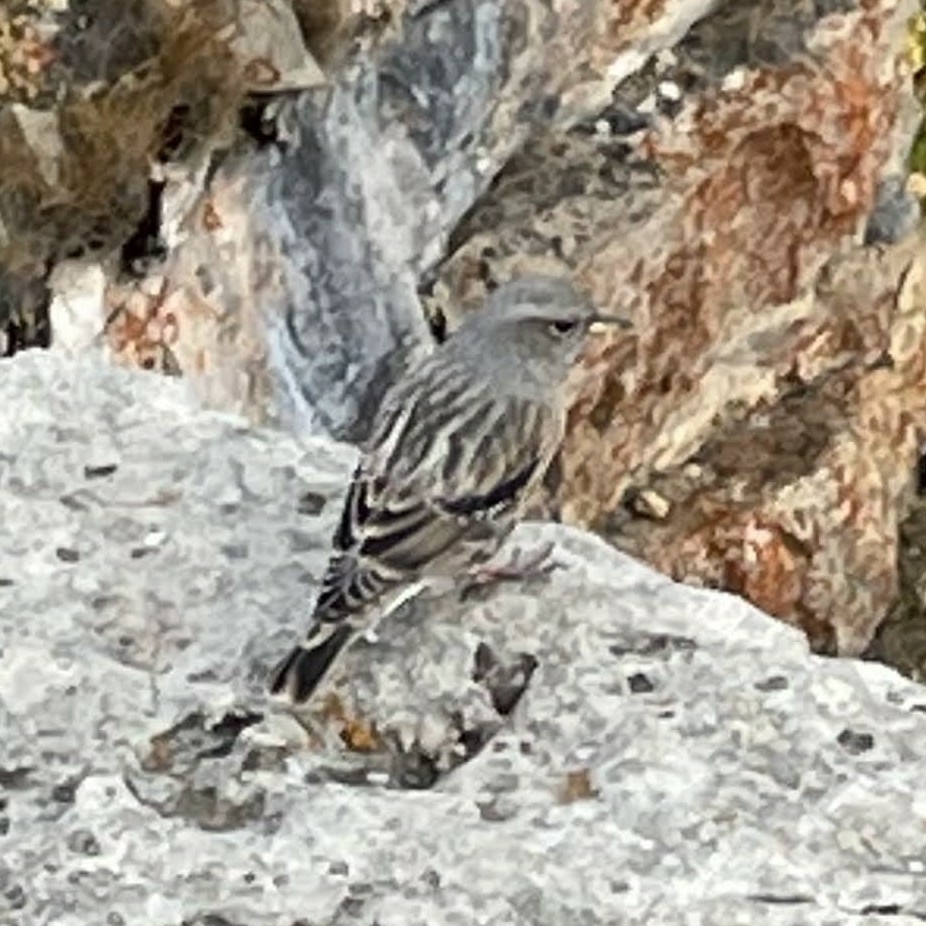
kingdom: Animalia
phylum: Chordata
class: Aves
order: Passeriformes
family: Prunellidae
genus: Prunella
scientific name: Prunella collaris
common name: Alpine accentor
